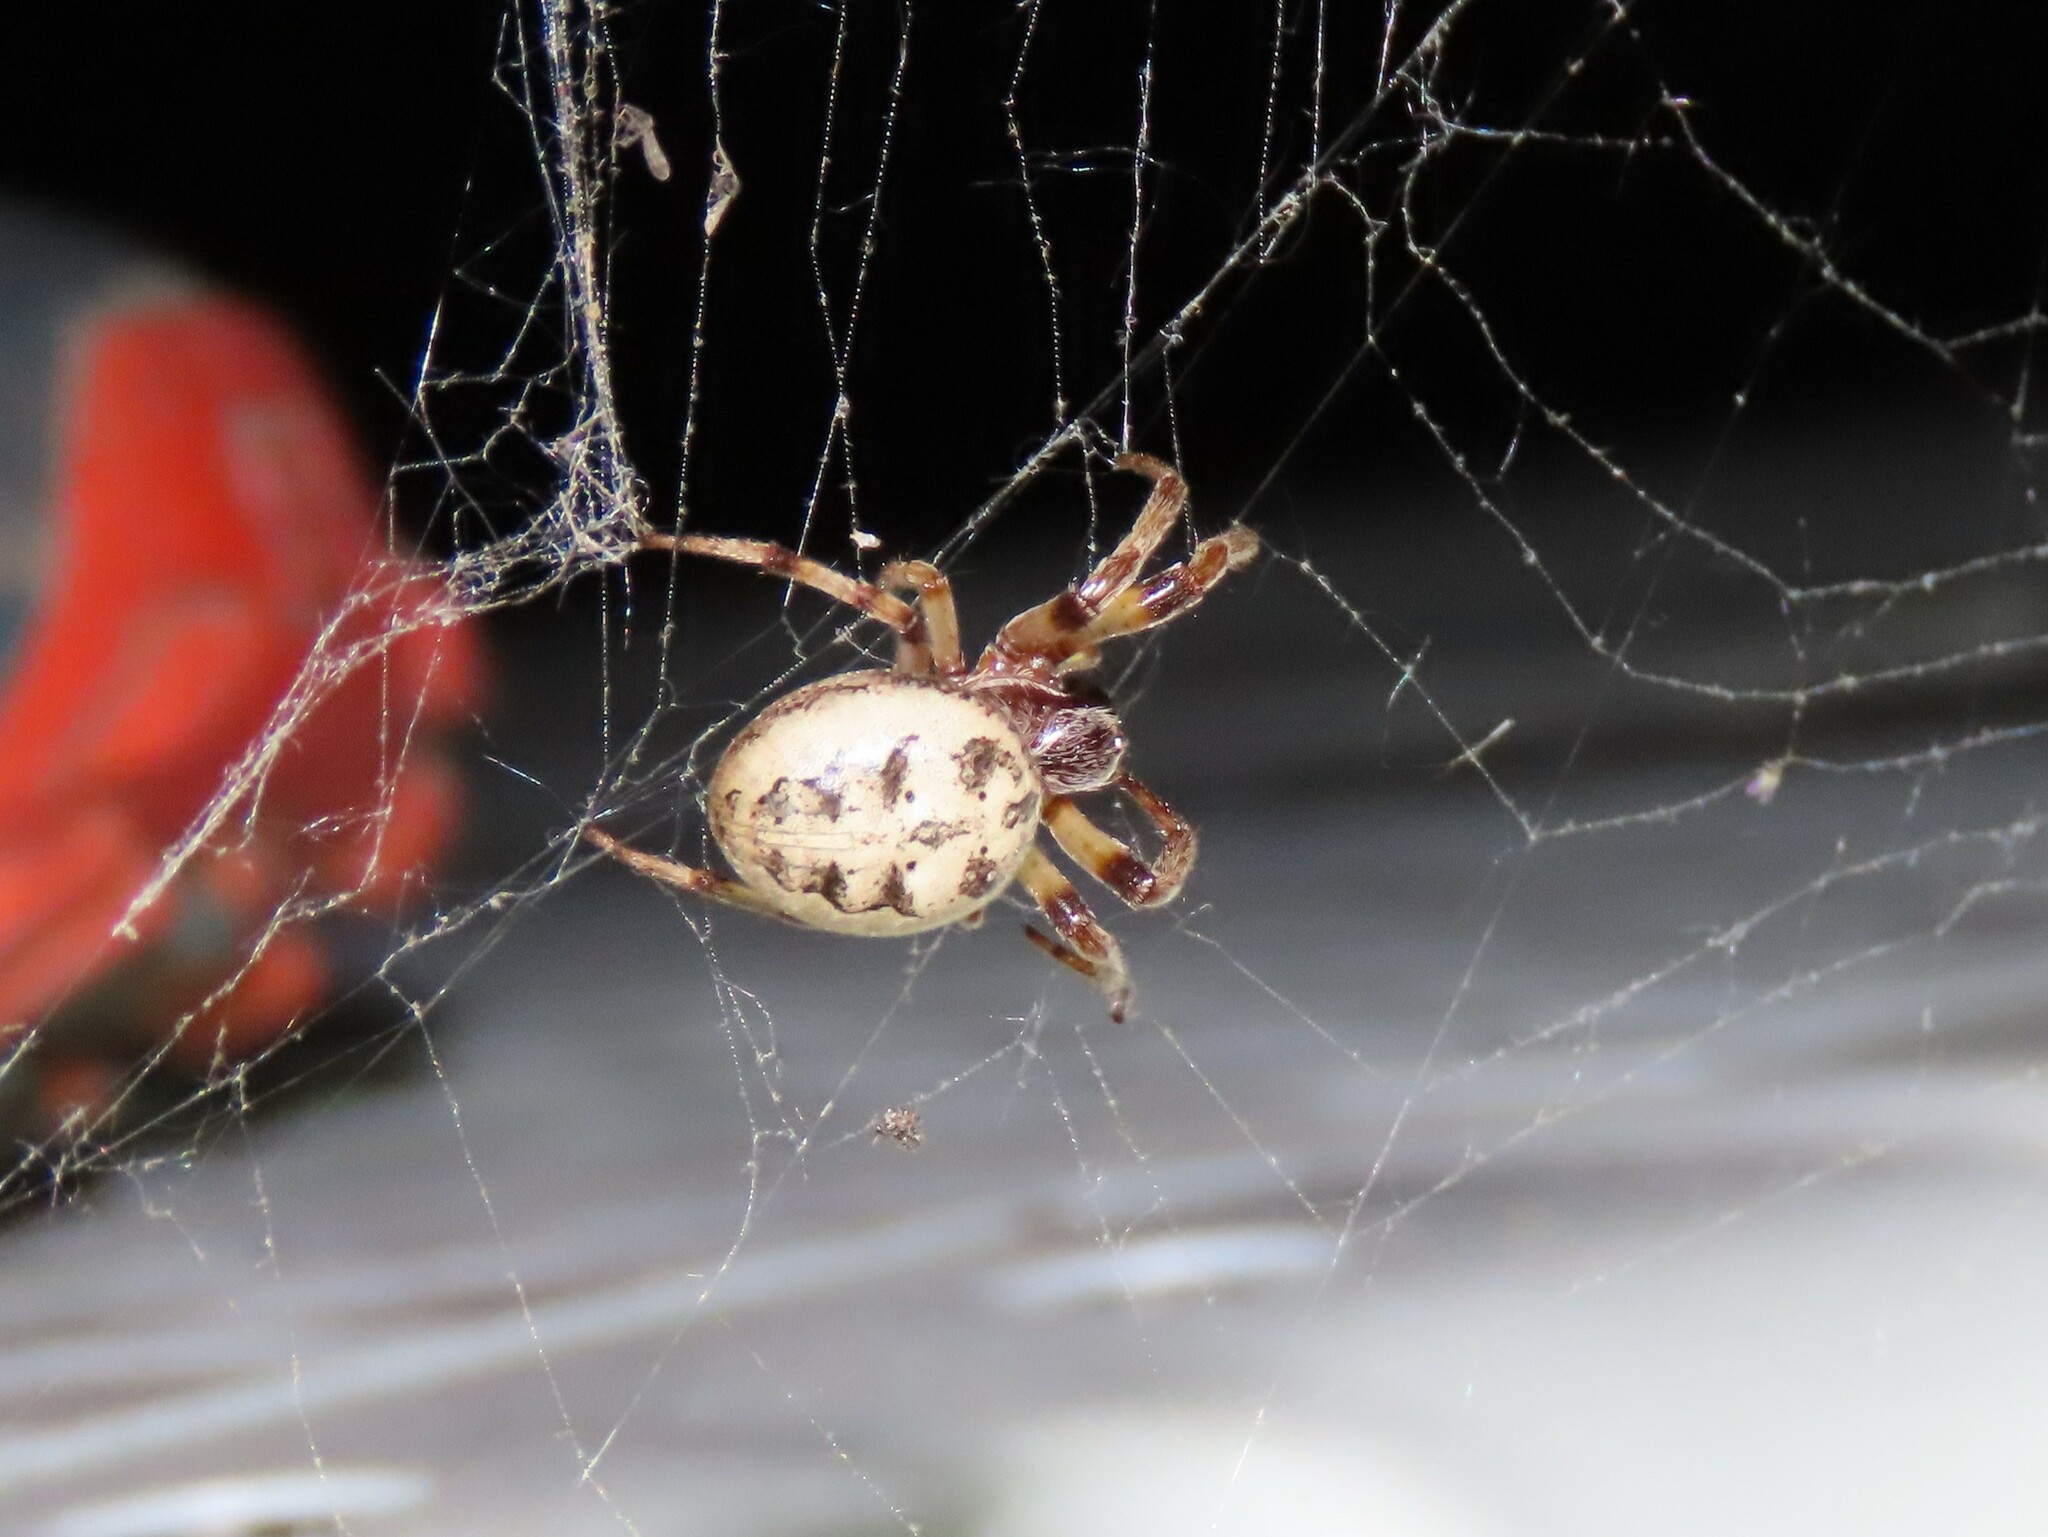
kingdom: Animalia
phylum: Arthropoda
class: Arachnida
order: Araneae
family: Araneidae
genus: Larinioides
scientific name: Larinioides cornutus
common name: Furrow orbweaver
